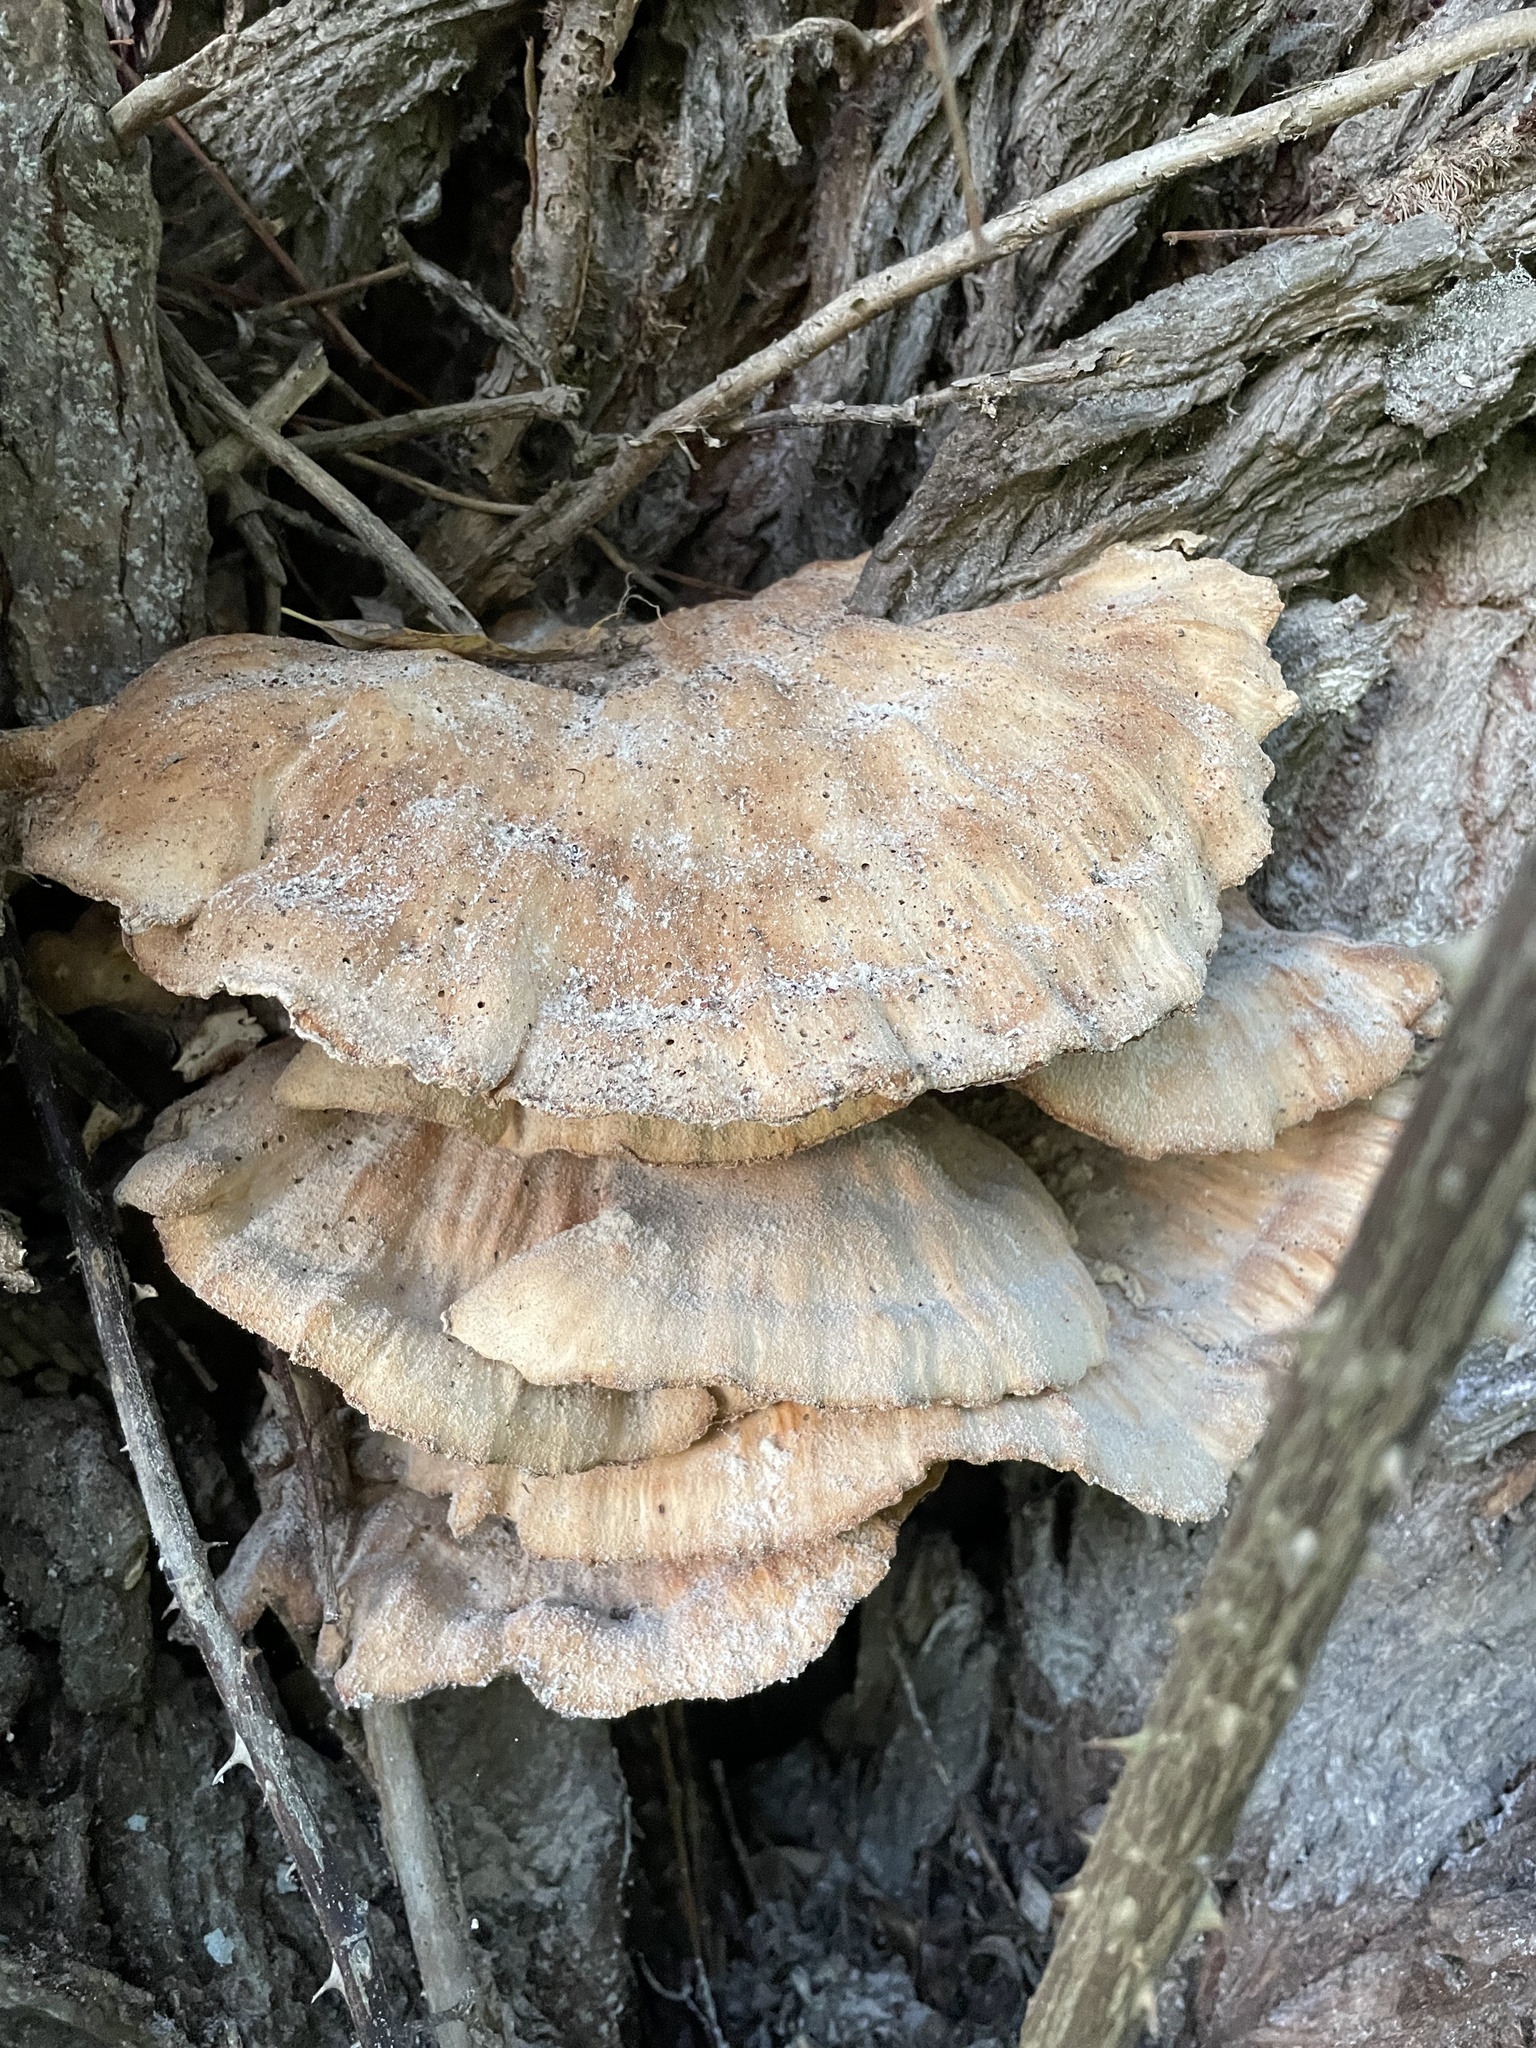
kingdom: Fungi
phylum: Basidiomycota
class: Agaricomycetes
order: Polyporales
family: Laetiporaceae
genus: Laetiporus
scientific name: Laetiporus sulphureus
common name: Chicken of the woods
